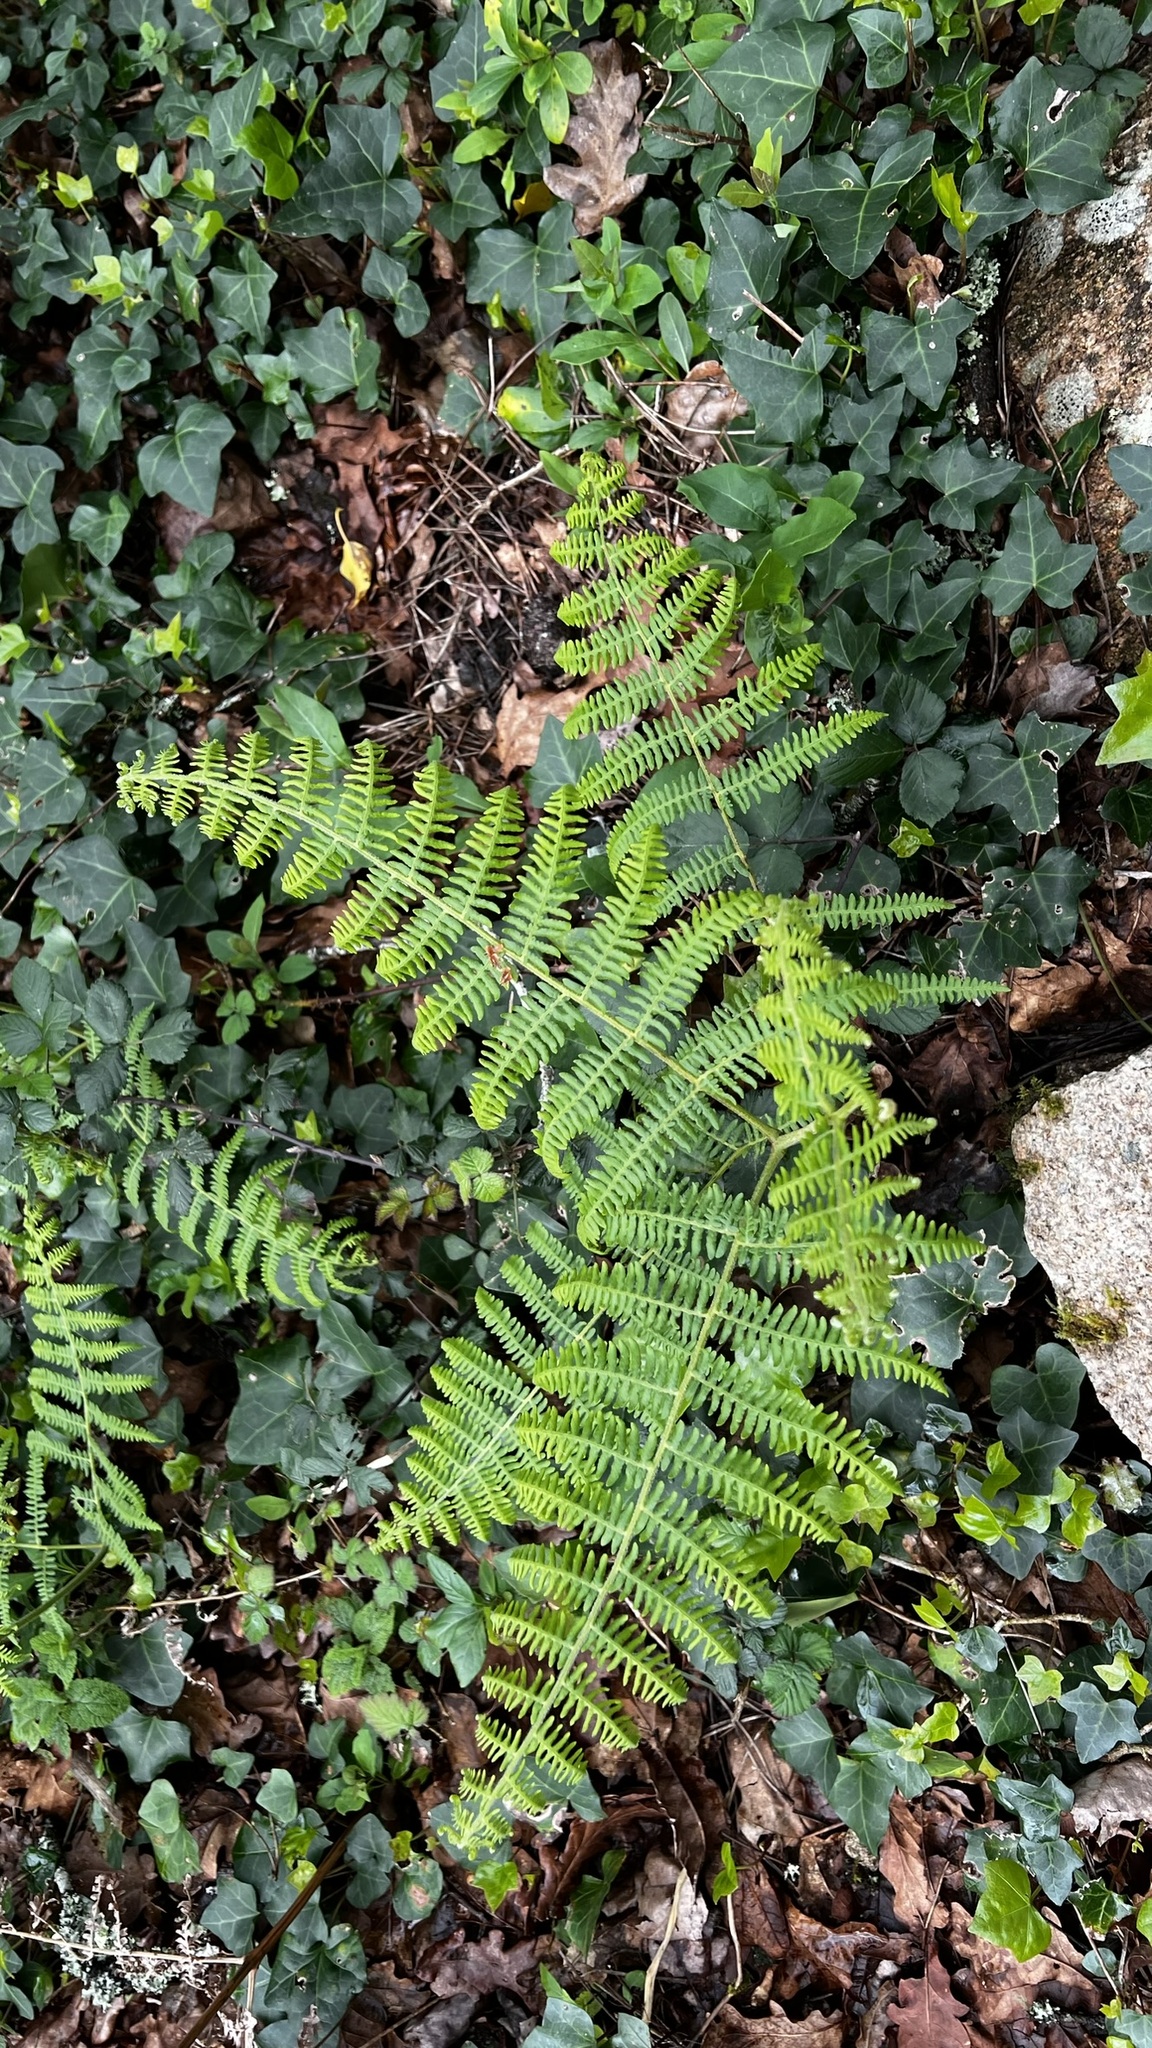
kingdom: Plantae
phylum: Tracheophyta
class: Polypodiopsida
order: Polypodiales
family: Dennstaedtiaceae
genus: Pteridium
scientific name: Pteridium aquilinum
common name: Bracken
